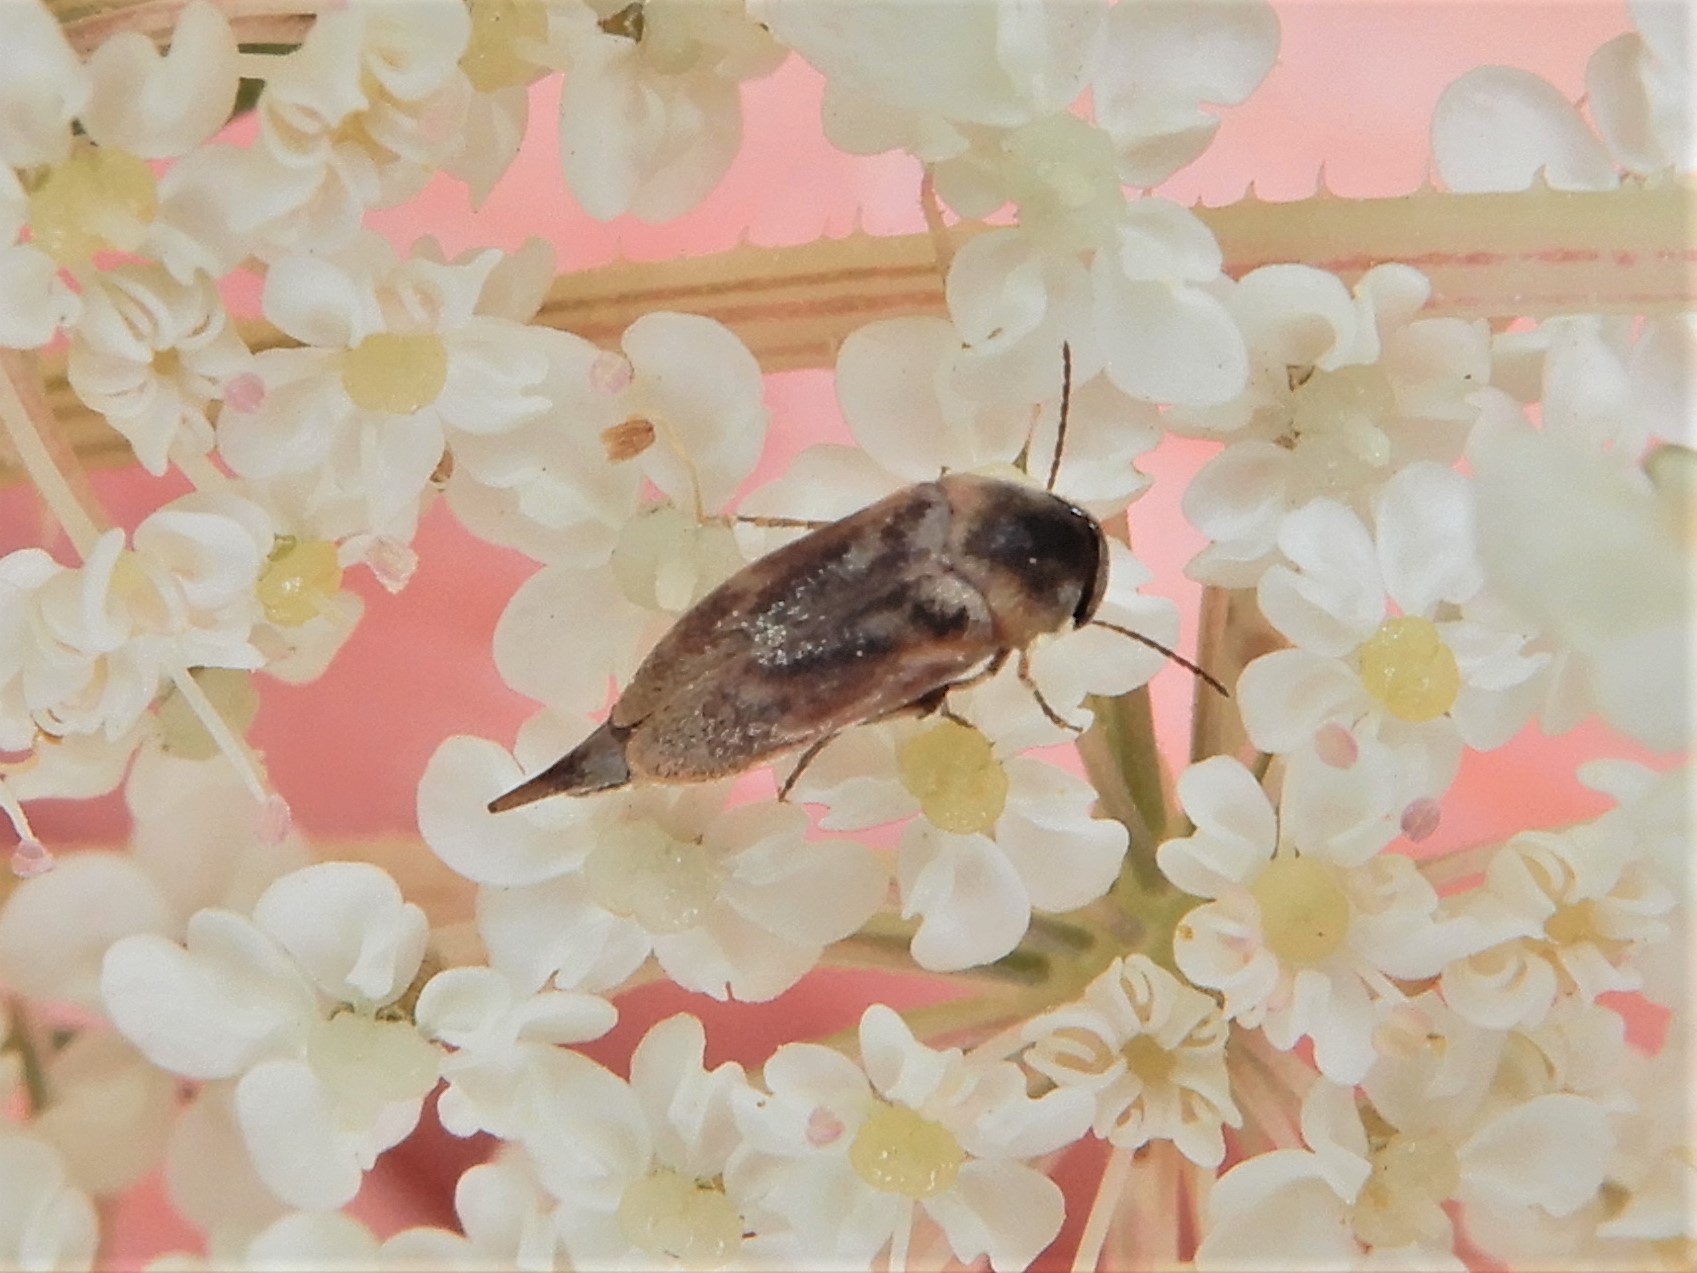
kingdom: Animalia
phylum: Arthropoda
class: Insecta
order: Coleoptera
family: Mordellidae
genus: Mordella
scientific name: Mordella
